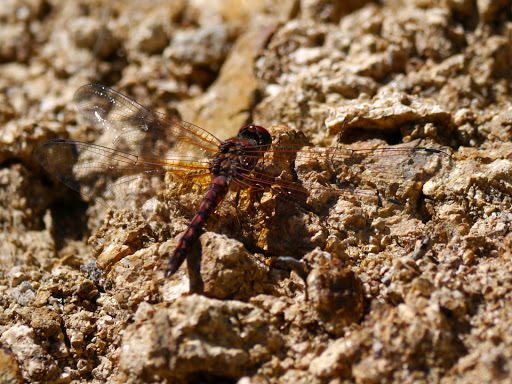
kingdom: Animalia
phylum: Arthropoda
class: Insecta
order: Odonata
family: Libellulidae
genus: Paltothemis
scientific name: Paltothemis lineatipes
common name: Red rock skimmer
